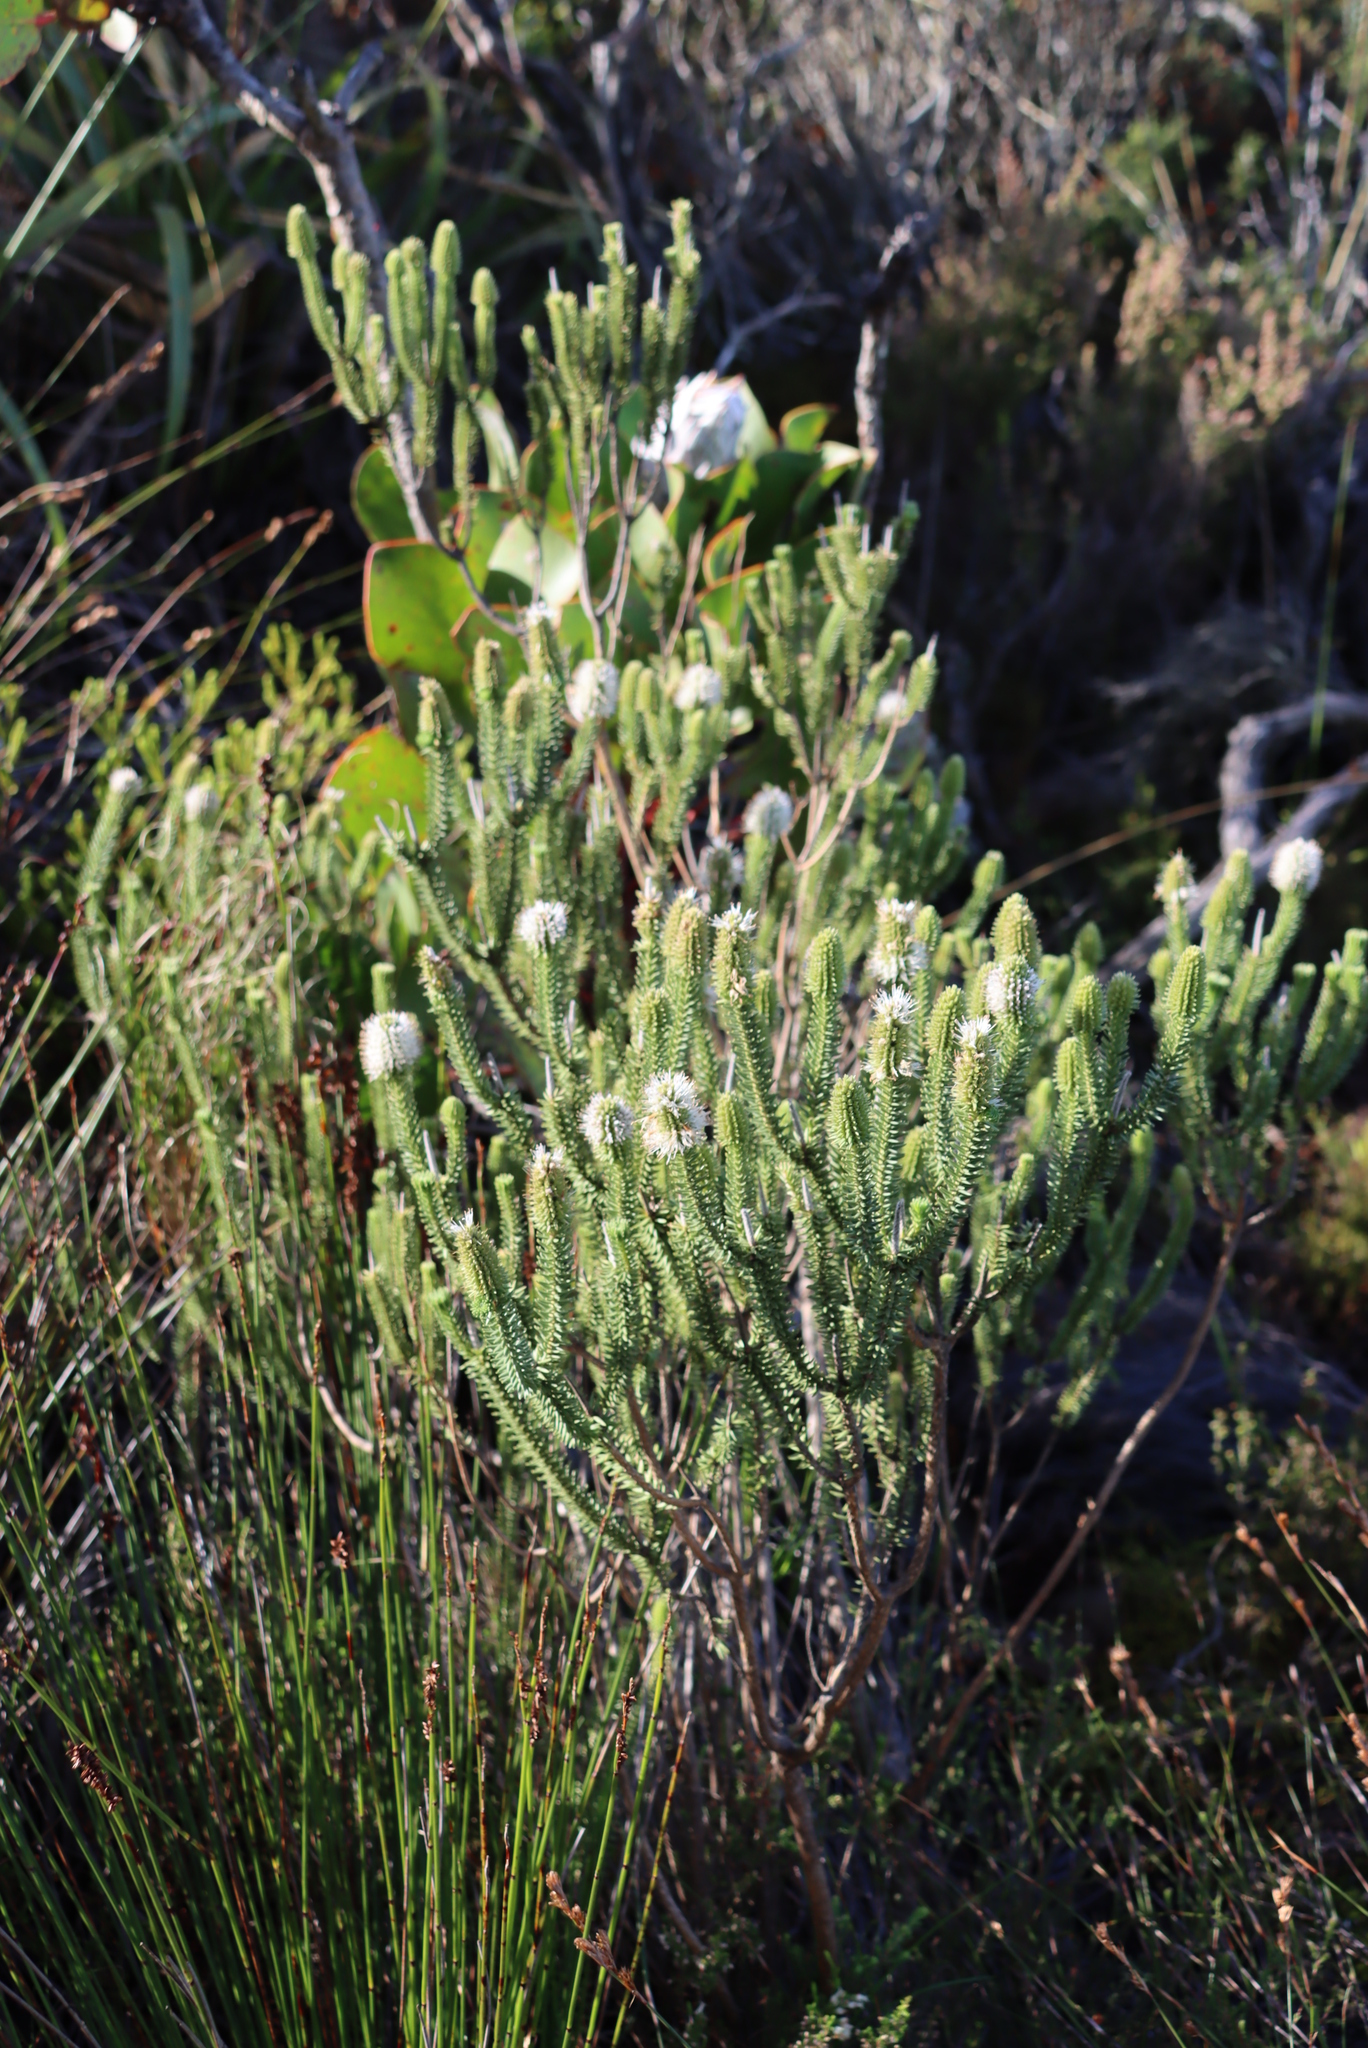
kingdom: Plantae
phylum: Tracheophyta
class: Magnoliopsida
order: Lamiales
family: Stilbaceae
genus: Stilbe
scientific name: Stilbe vestita
